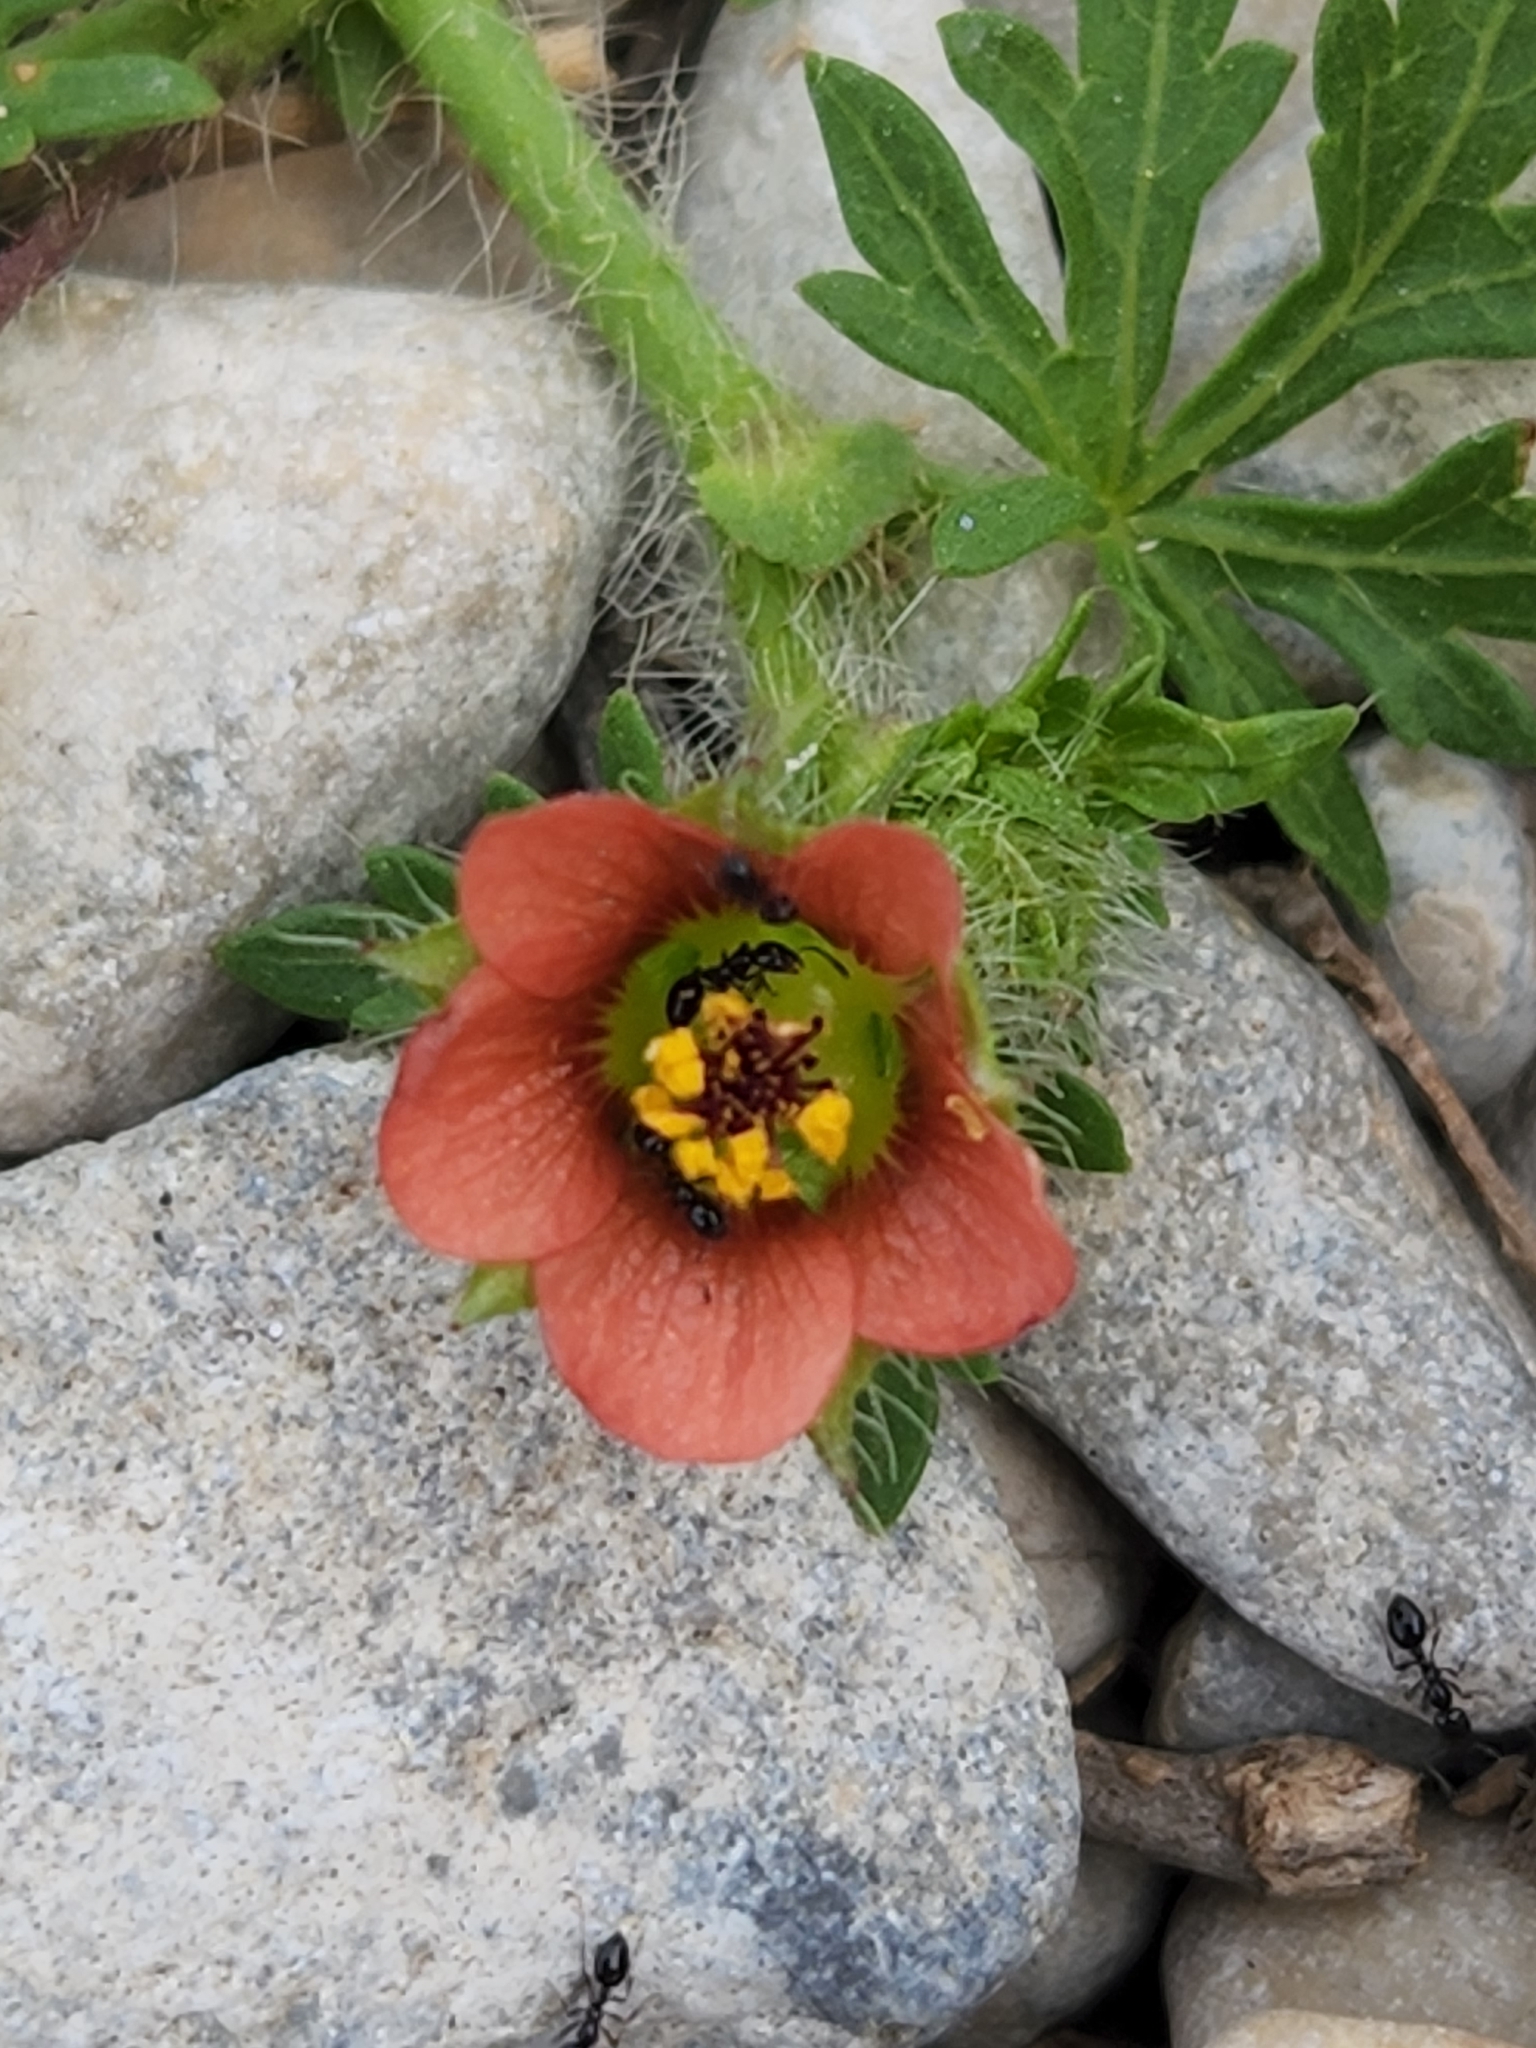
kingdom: Plantae
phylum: Tracheophyta
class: Magnoliopsida
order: Malvales
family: Malvaceae
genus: Modiola
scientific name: Modiola caroliniana
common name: Carolina bristlemallow
